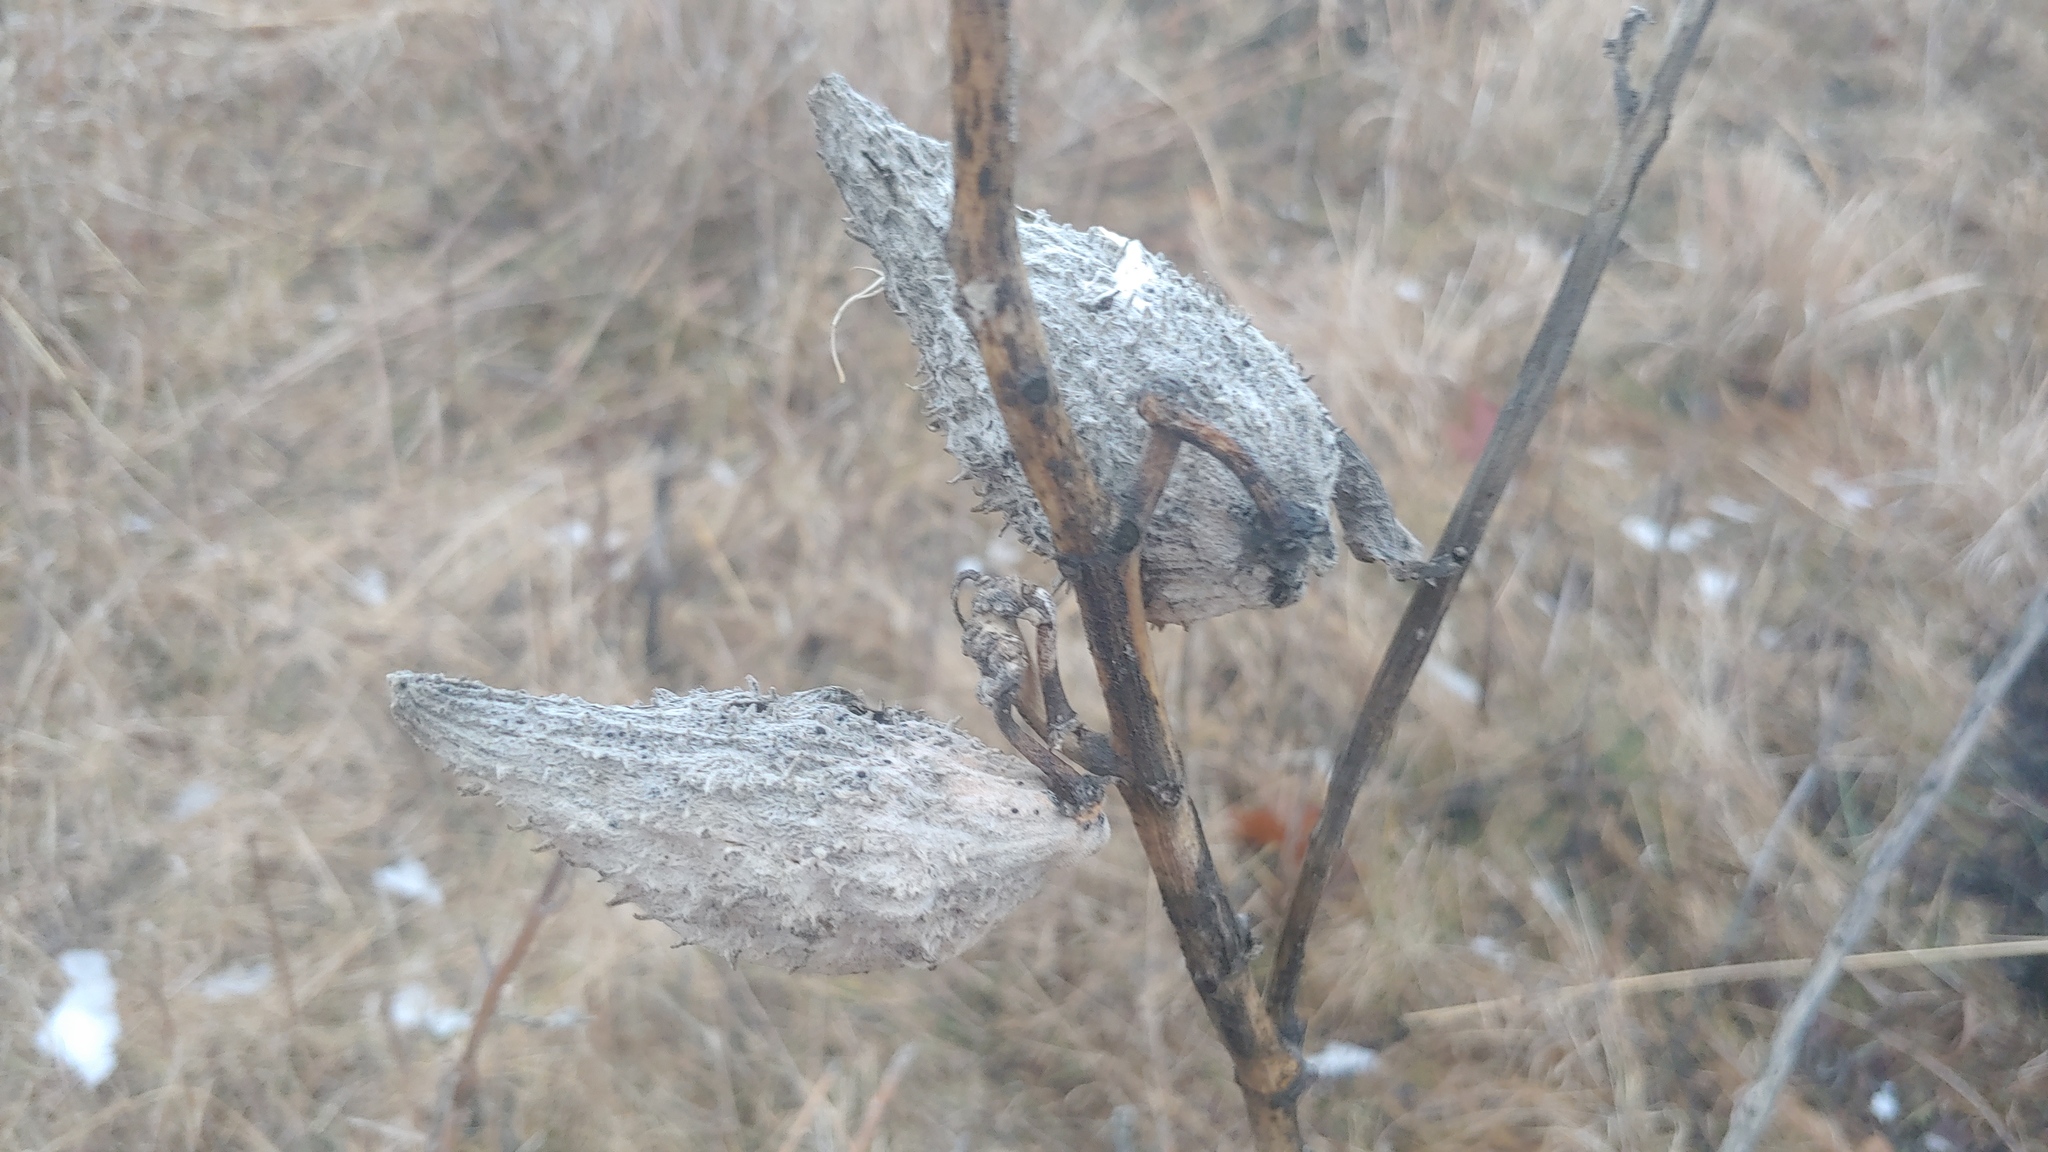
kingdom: Plantae
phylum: Tracheophyta
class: Magnoliopsida
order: Gentianales
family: Apocynaceae
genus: Asclepias
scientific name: Asclepias syriaca
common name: Common milkweed
